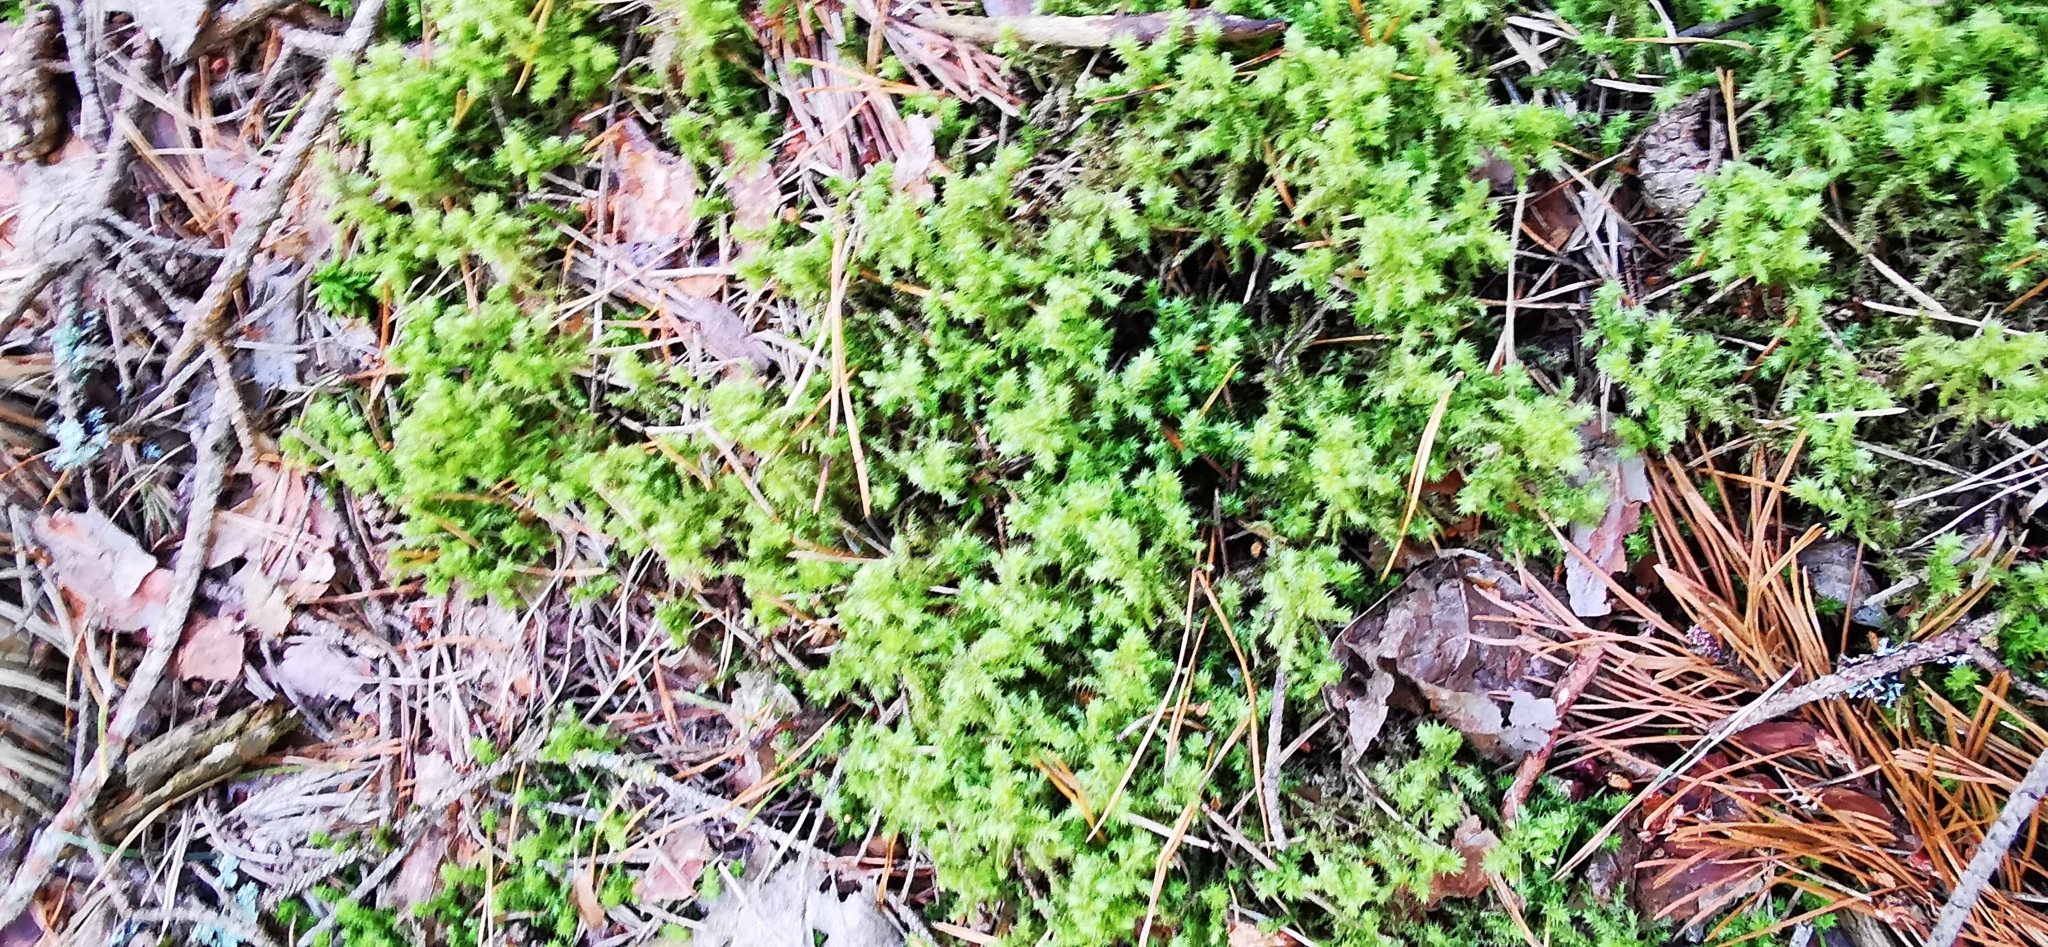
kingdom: Plantae
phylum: Bryophyta
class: Bryopsida
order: Hypnales
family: Hylocomiaceae
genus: Hylocomiadelphus
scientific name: Hylocomiadelphus triquetrus
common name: Rough goose neck moss
